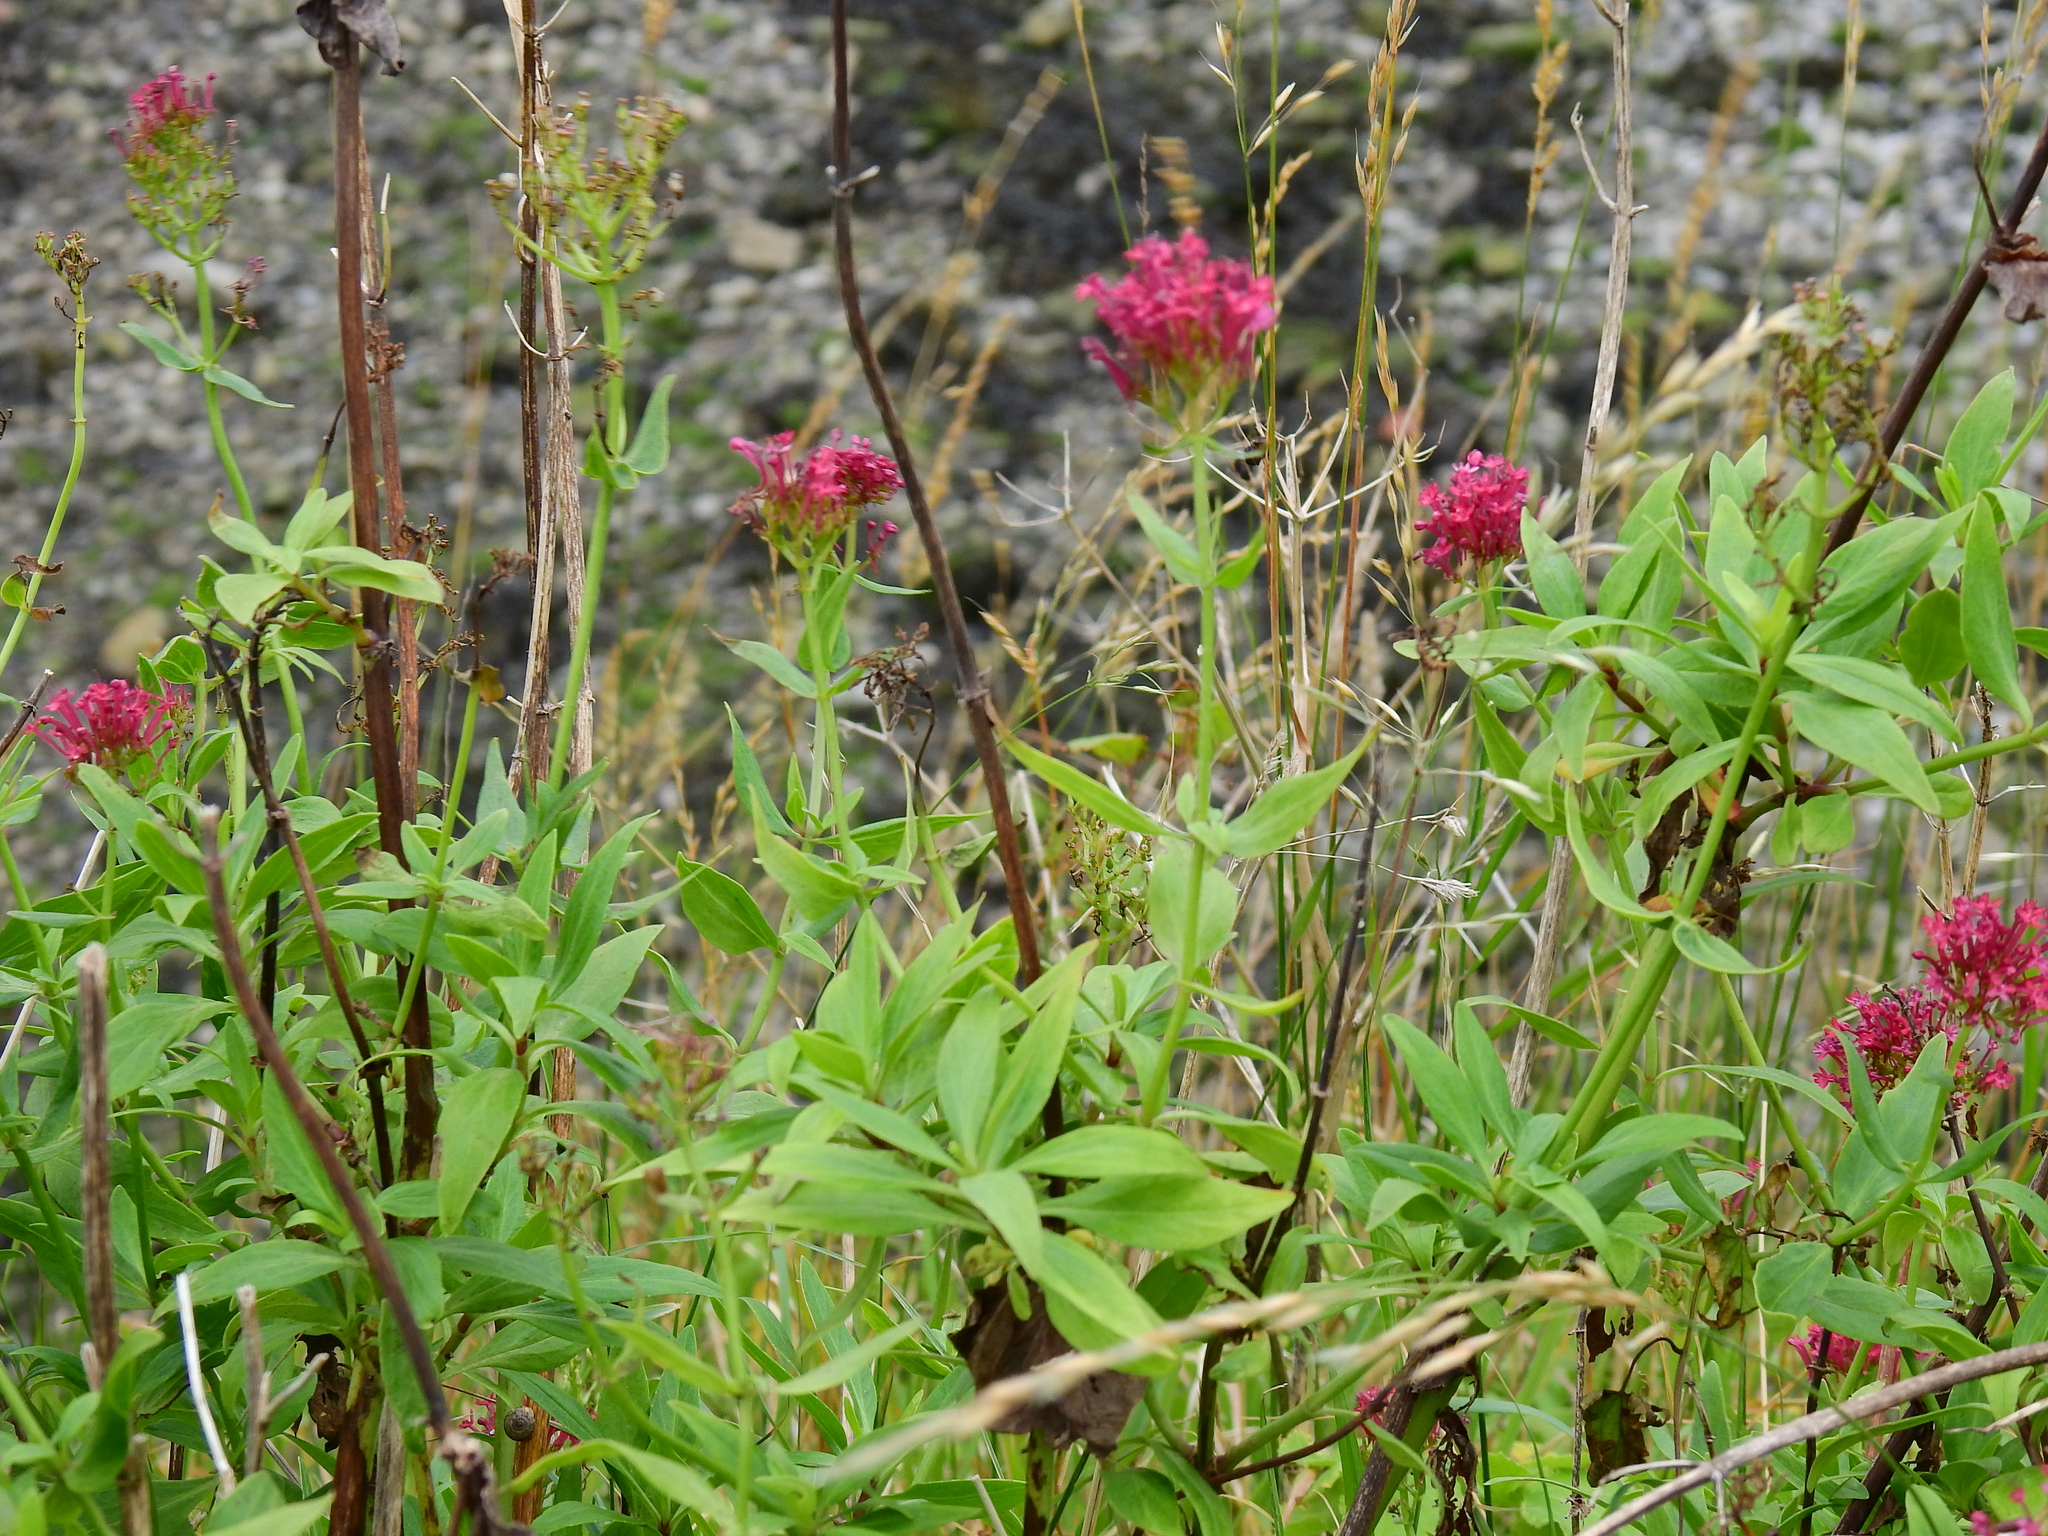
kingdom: Plantae
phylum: Tracheophyta
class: Magnoliopsida
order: Dipsacales
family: Caprifoliaceae
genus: Centranthus
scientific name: Centranthus ruber
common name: Red valerian
